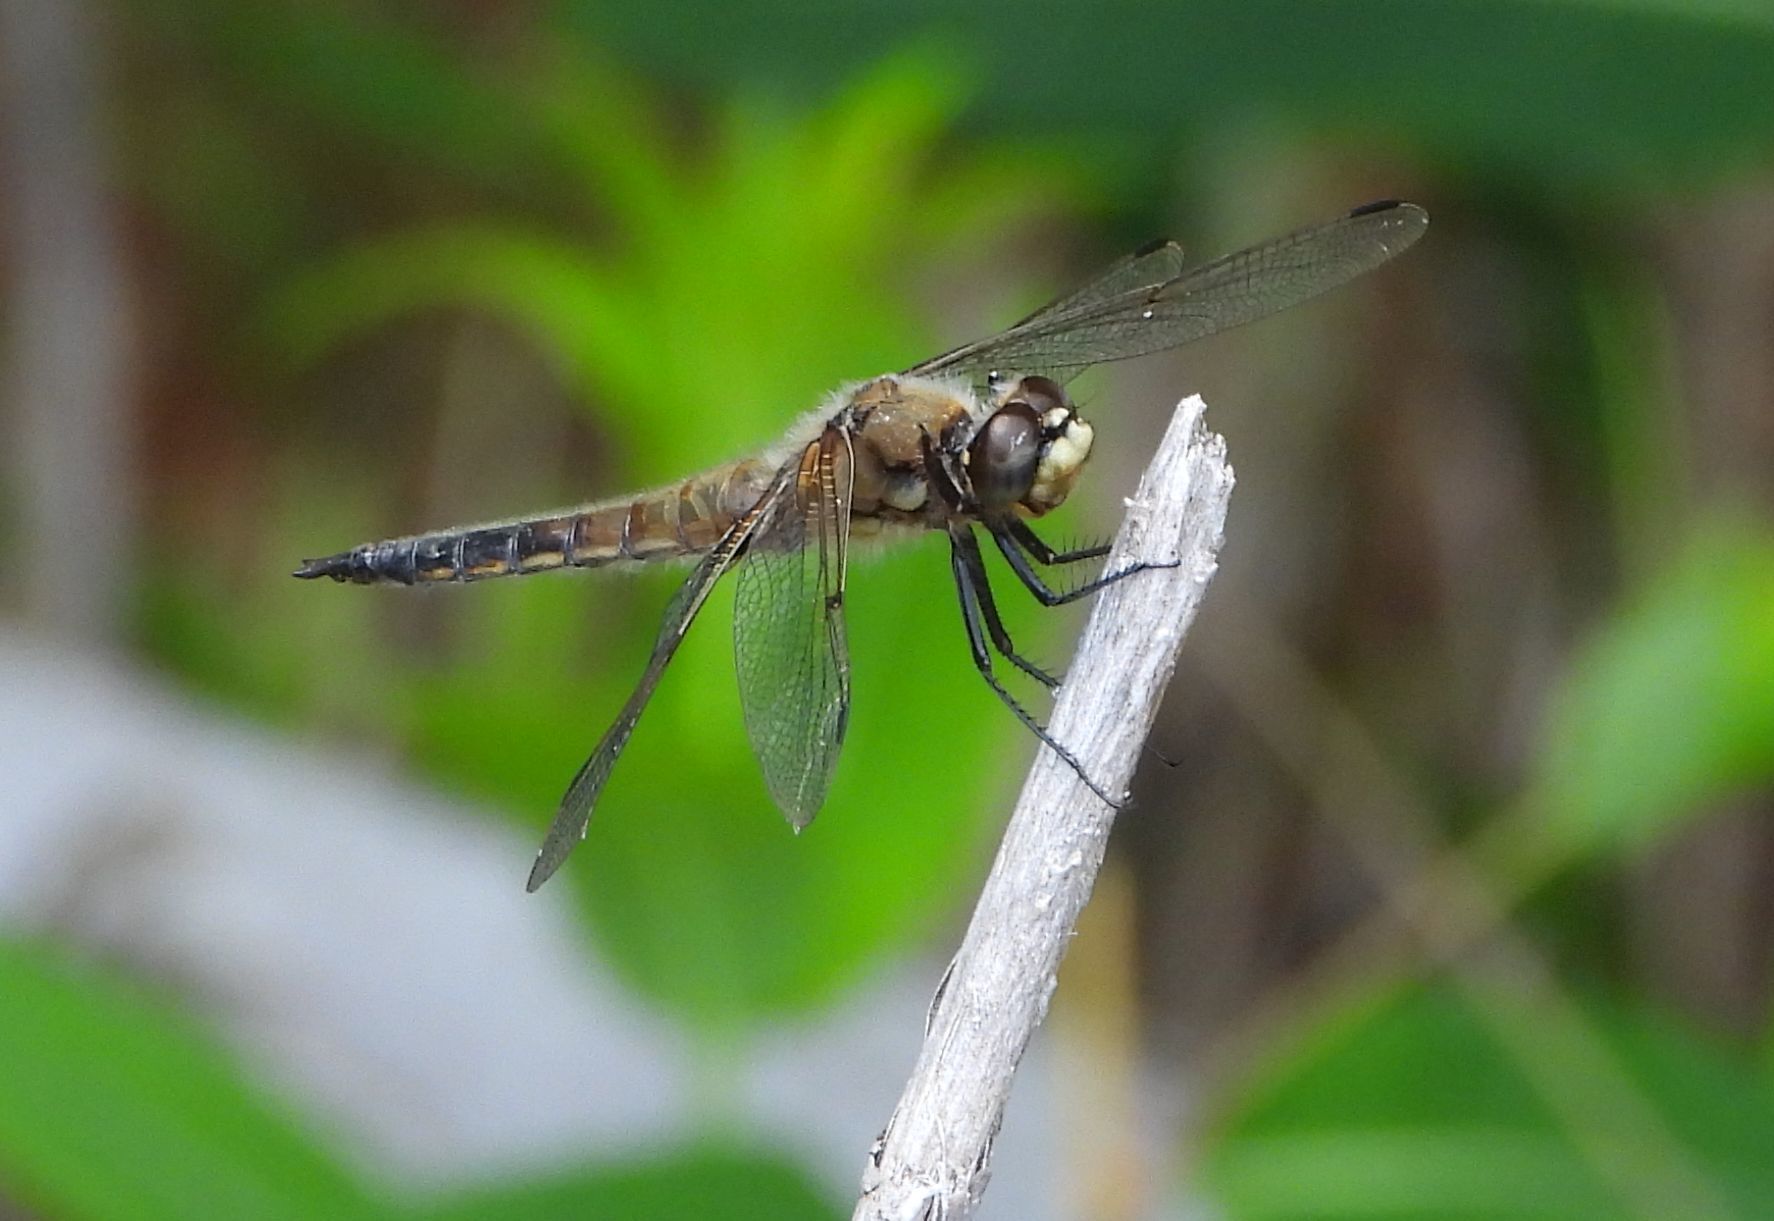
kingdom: Animalia
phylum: Arthropoda
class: Insecta
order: Odonata
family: Libellulidae
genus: Libellula
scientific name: Libellula quadrimaculata
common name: Four-spotted chaser
